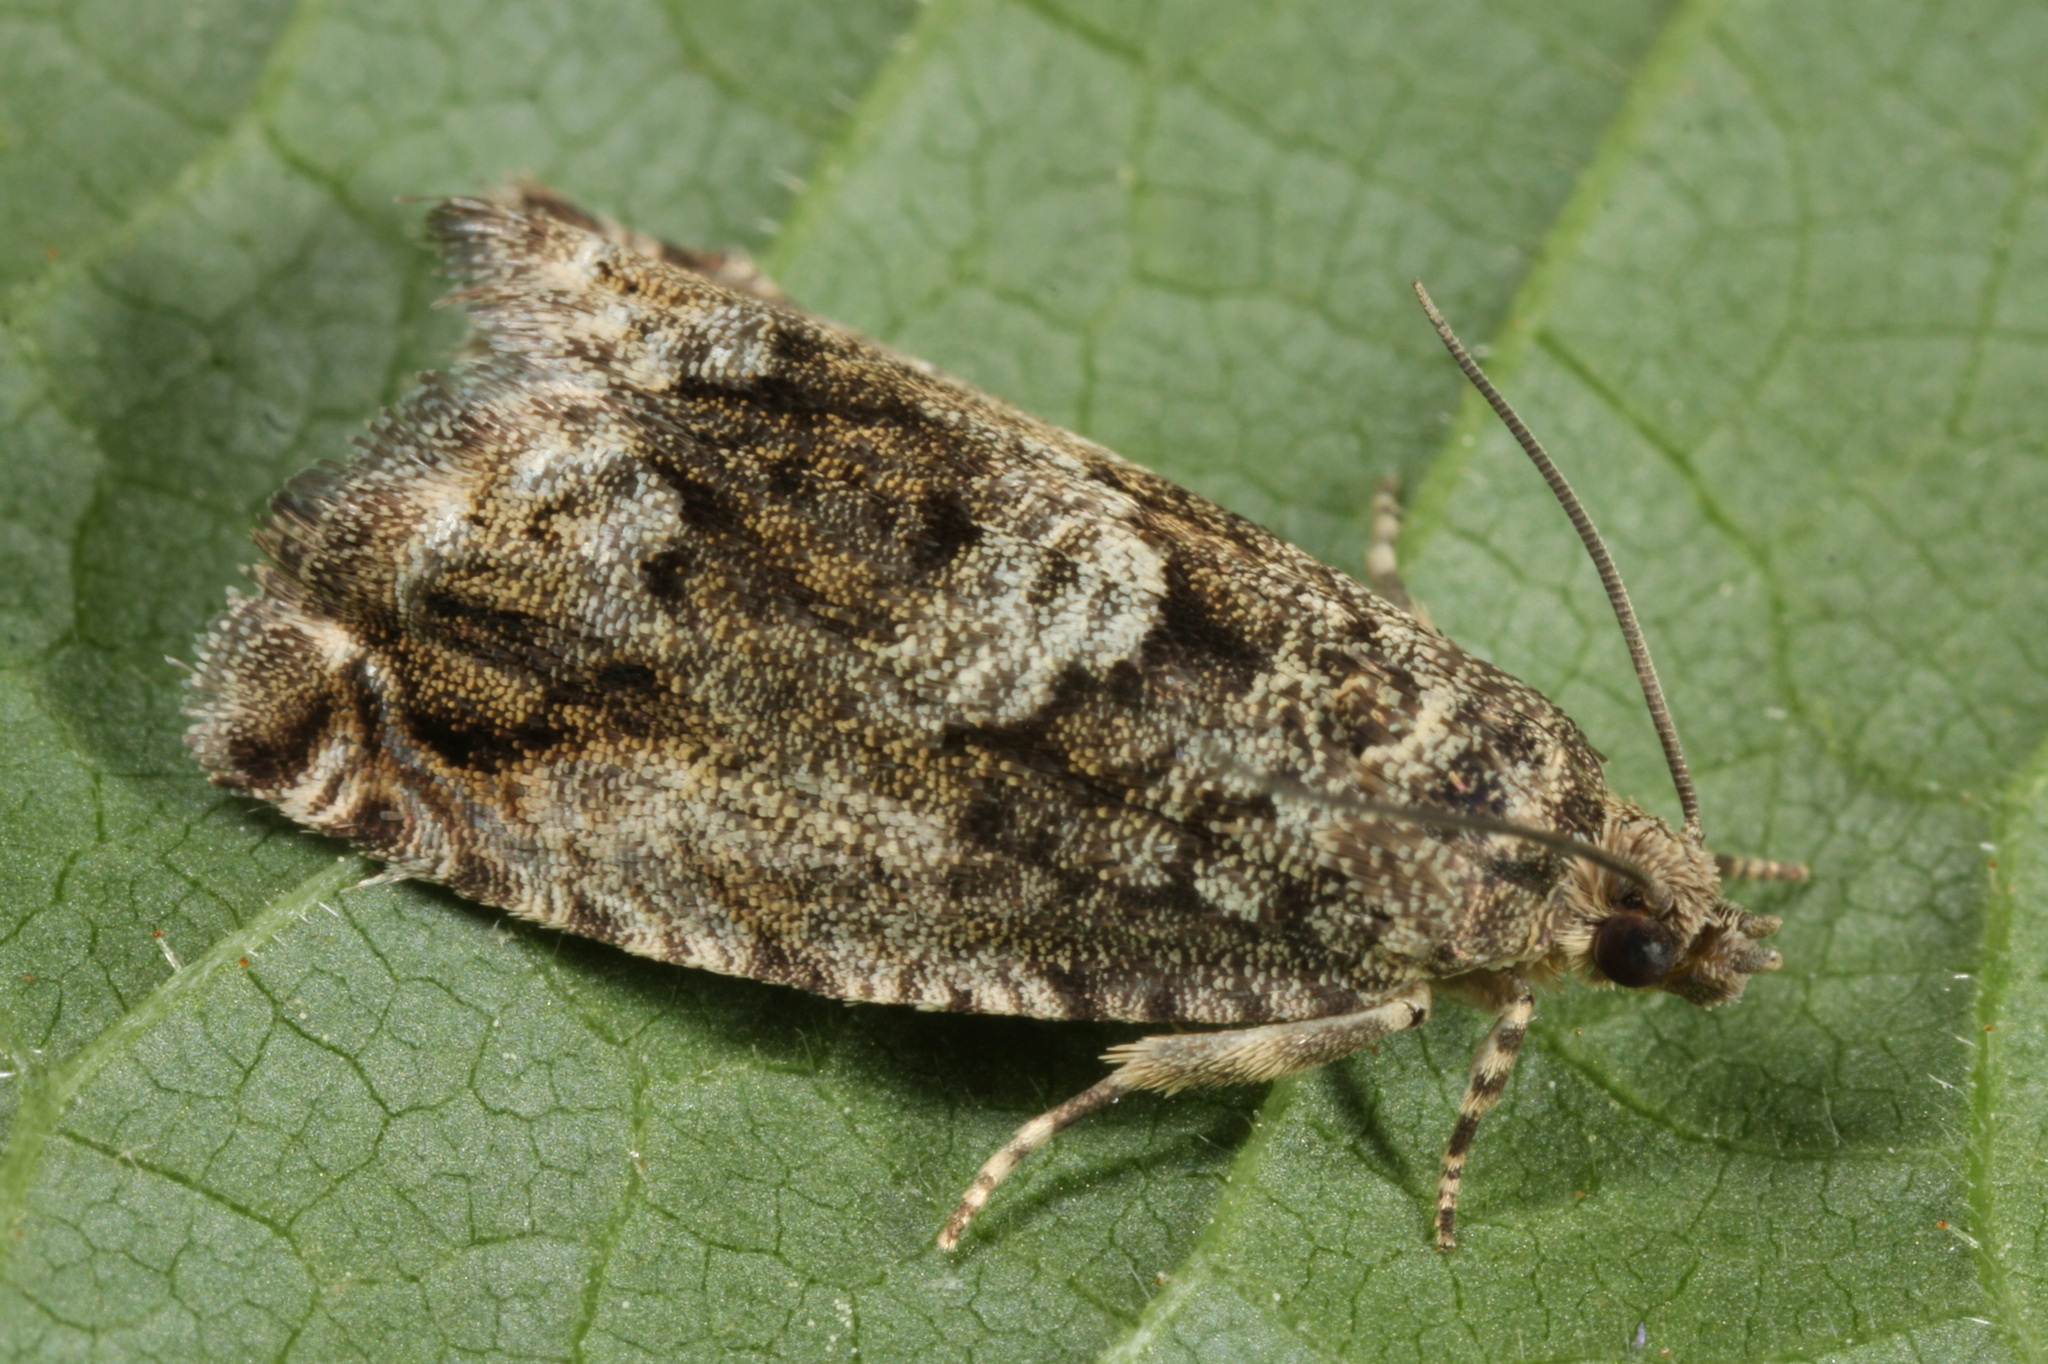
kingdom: Animalia
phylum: Arthropoda
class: Insecta
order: Lepidoptera
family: Tortricidae
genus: Cydia
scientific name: Cydia fagiglandana
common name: Large beech piercer
